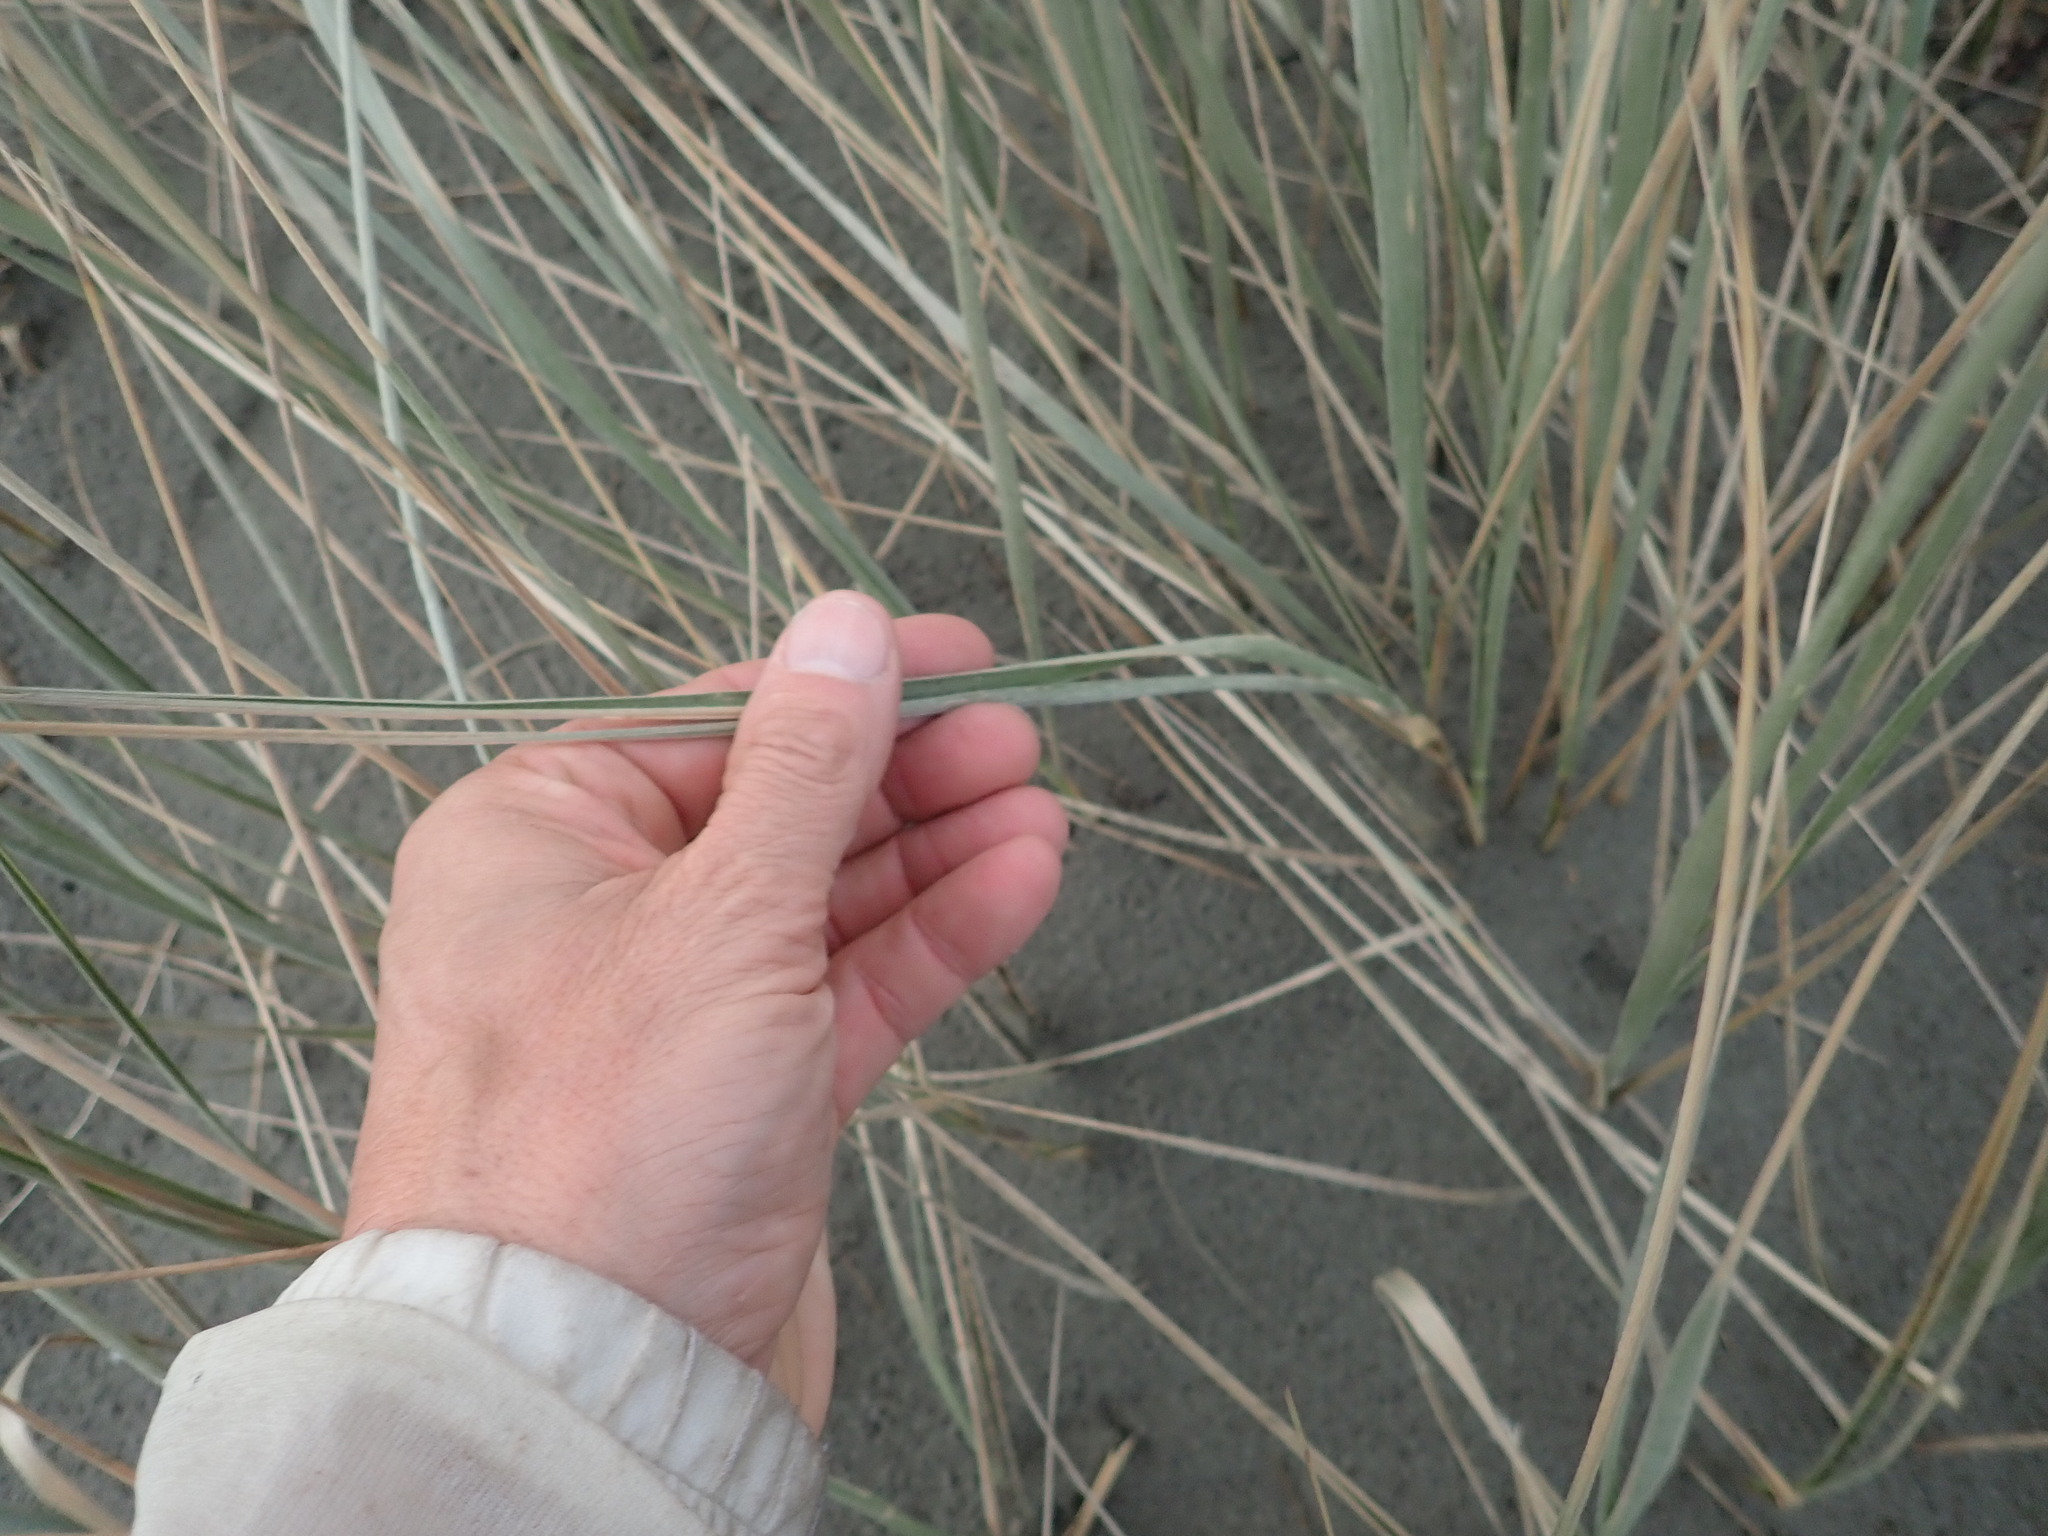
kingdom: Plantae
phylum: Tracheophyta
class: Liliopsida
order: Poales
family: Poaceae
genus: Spinifex
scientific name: Spinifex sericeus
